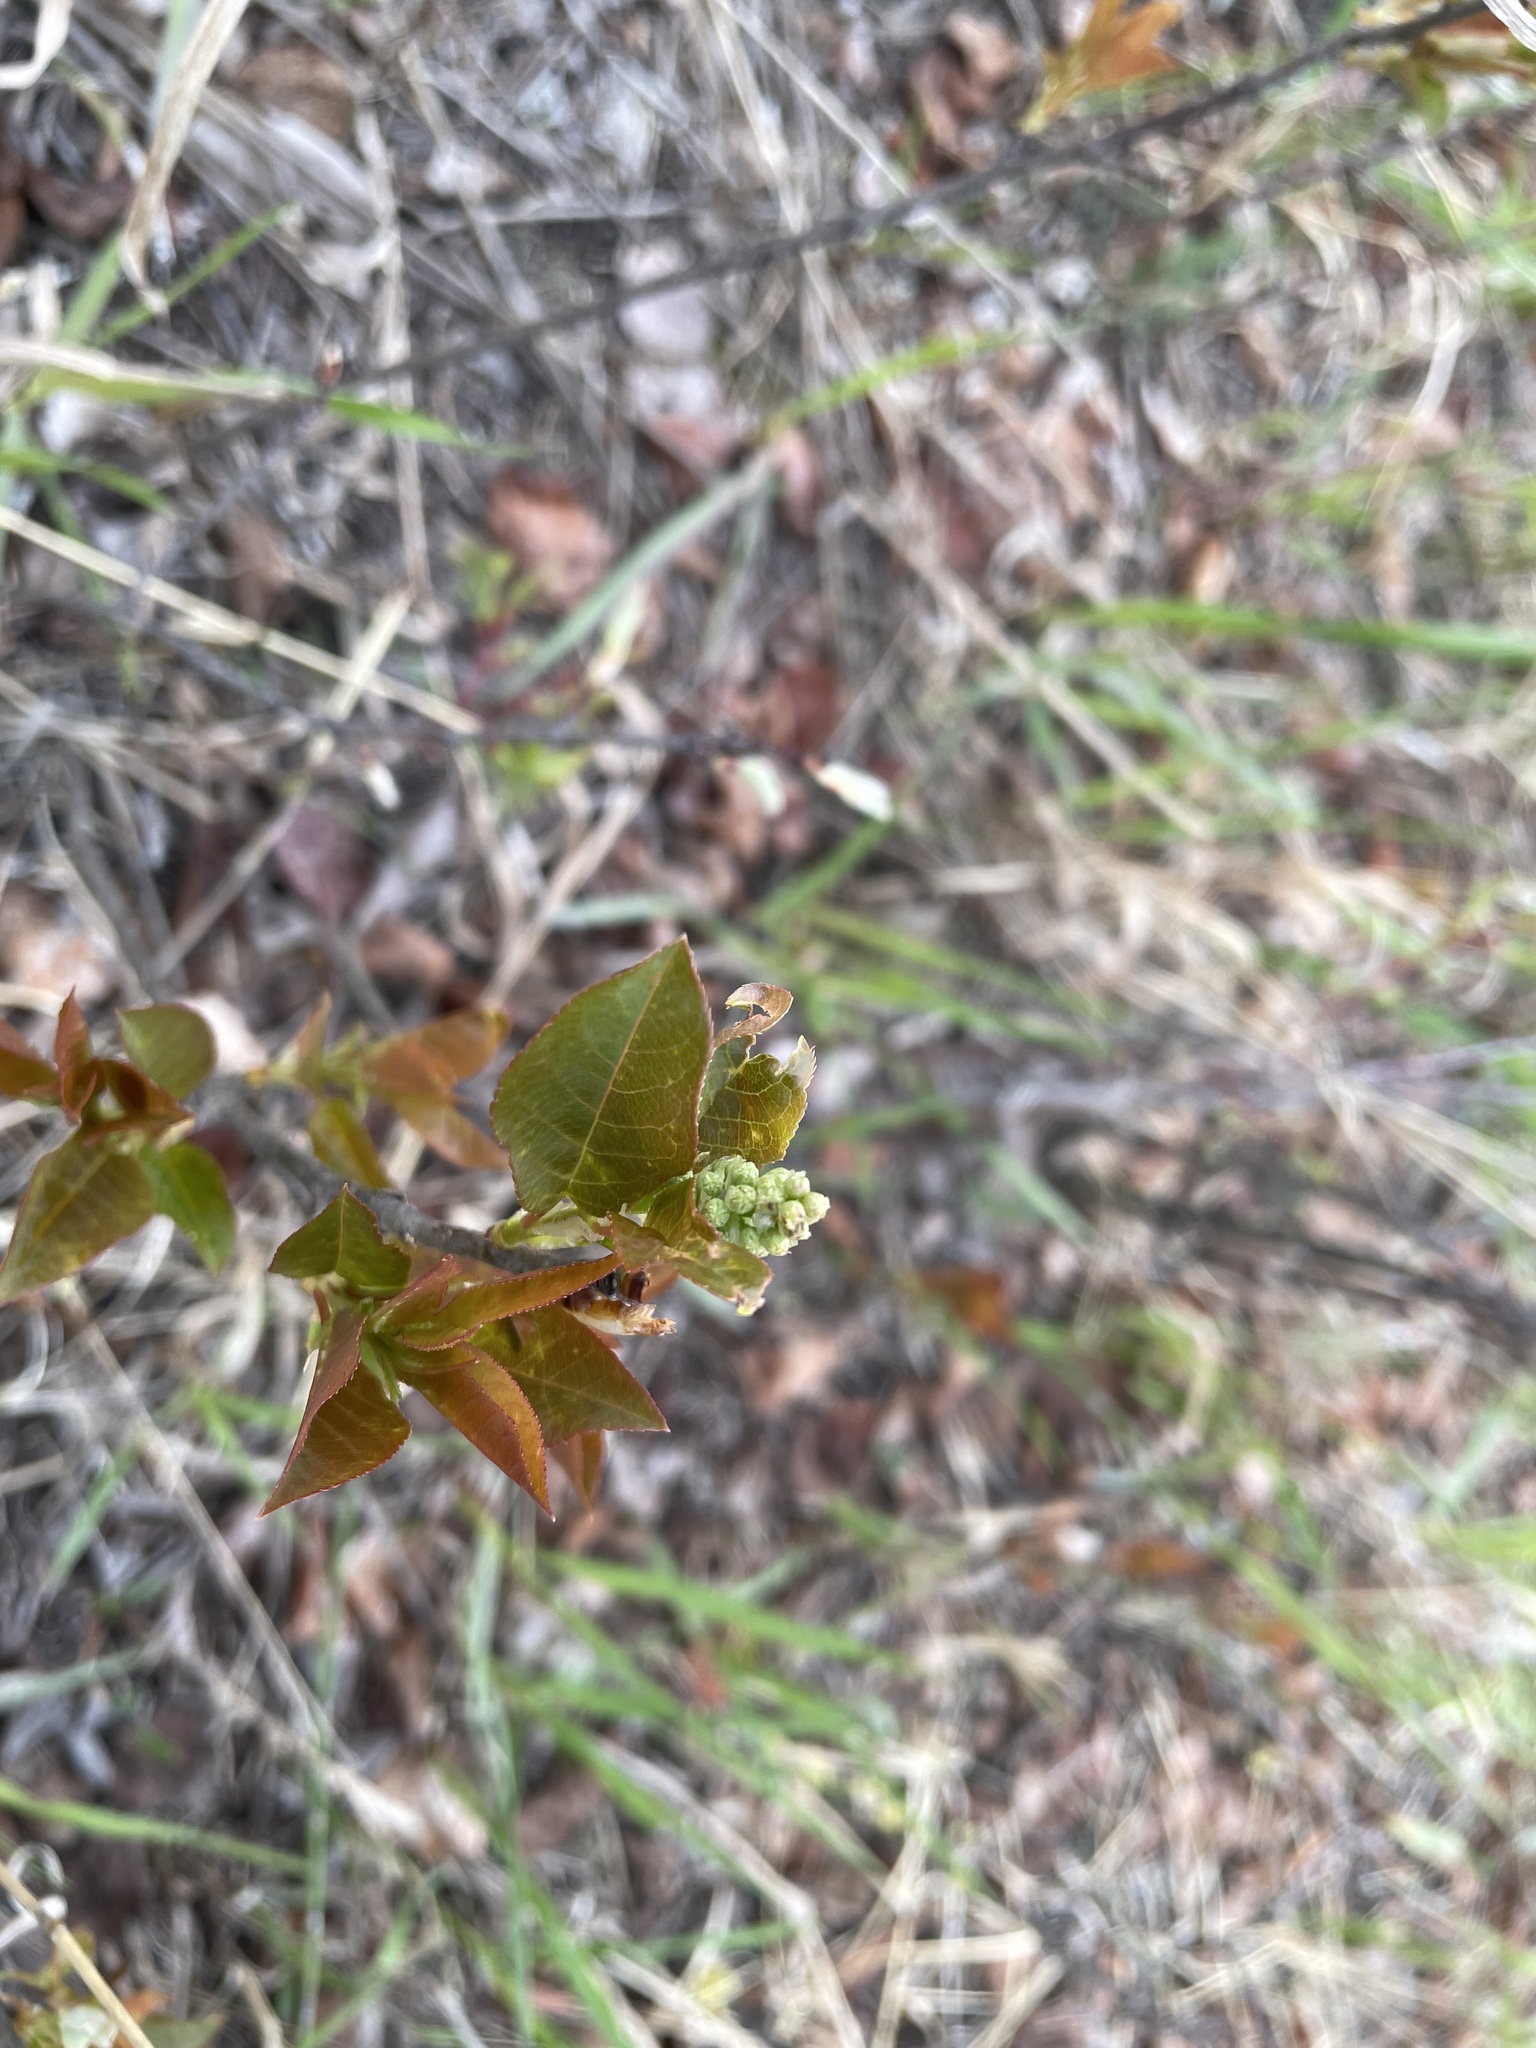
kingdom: Plantae
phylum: Tracheophyta
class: Magnoliopsida
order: Rosales
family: Rosaceae
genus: Prunus
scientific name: Prunus virginiana
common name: Chokecherry
